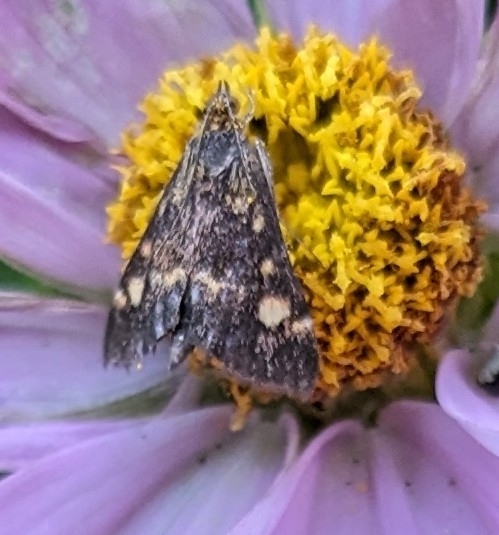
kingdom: Animalia
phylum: Arthropoda
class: Insecta
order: Lepidoptera
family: Crambidae
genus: Pyrausta
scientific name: Pyrausta aurata
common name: Small purple & gold
